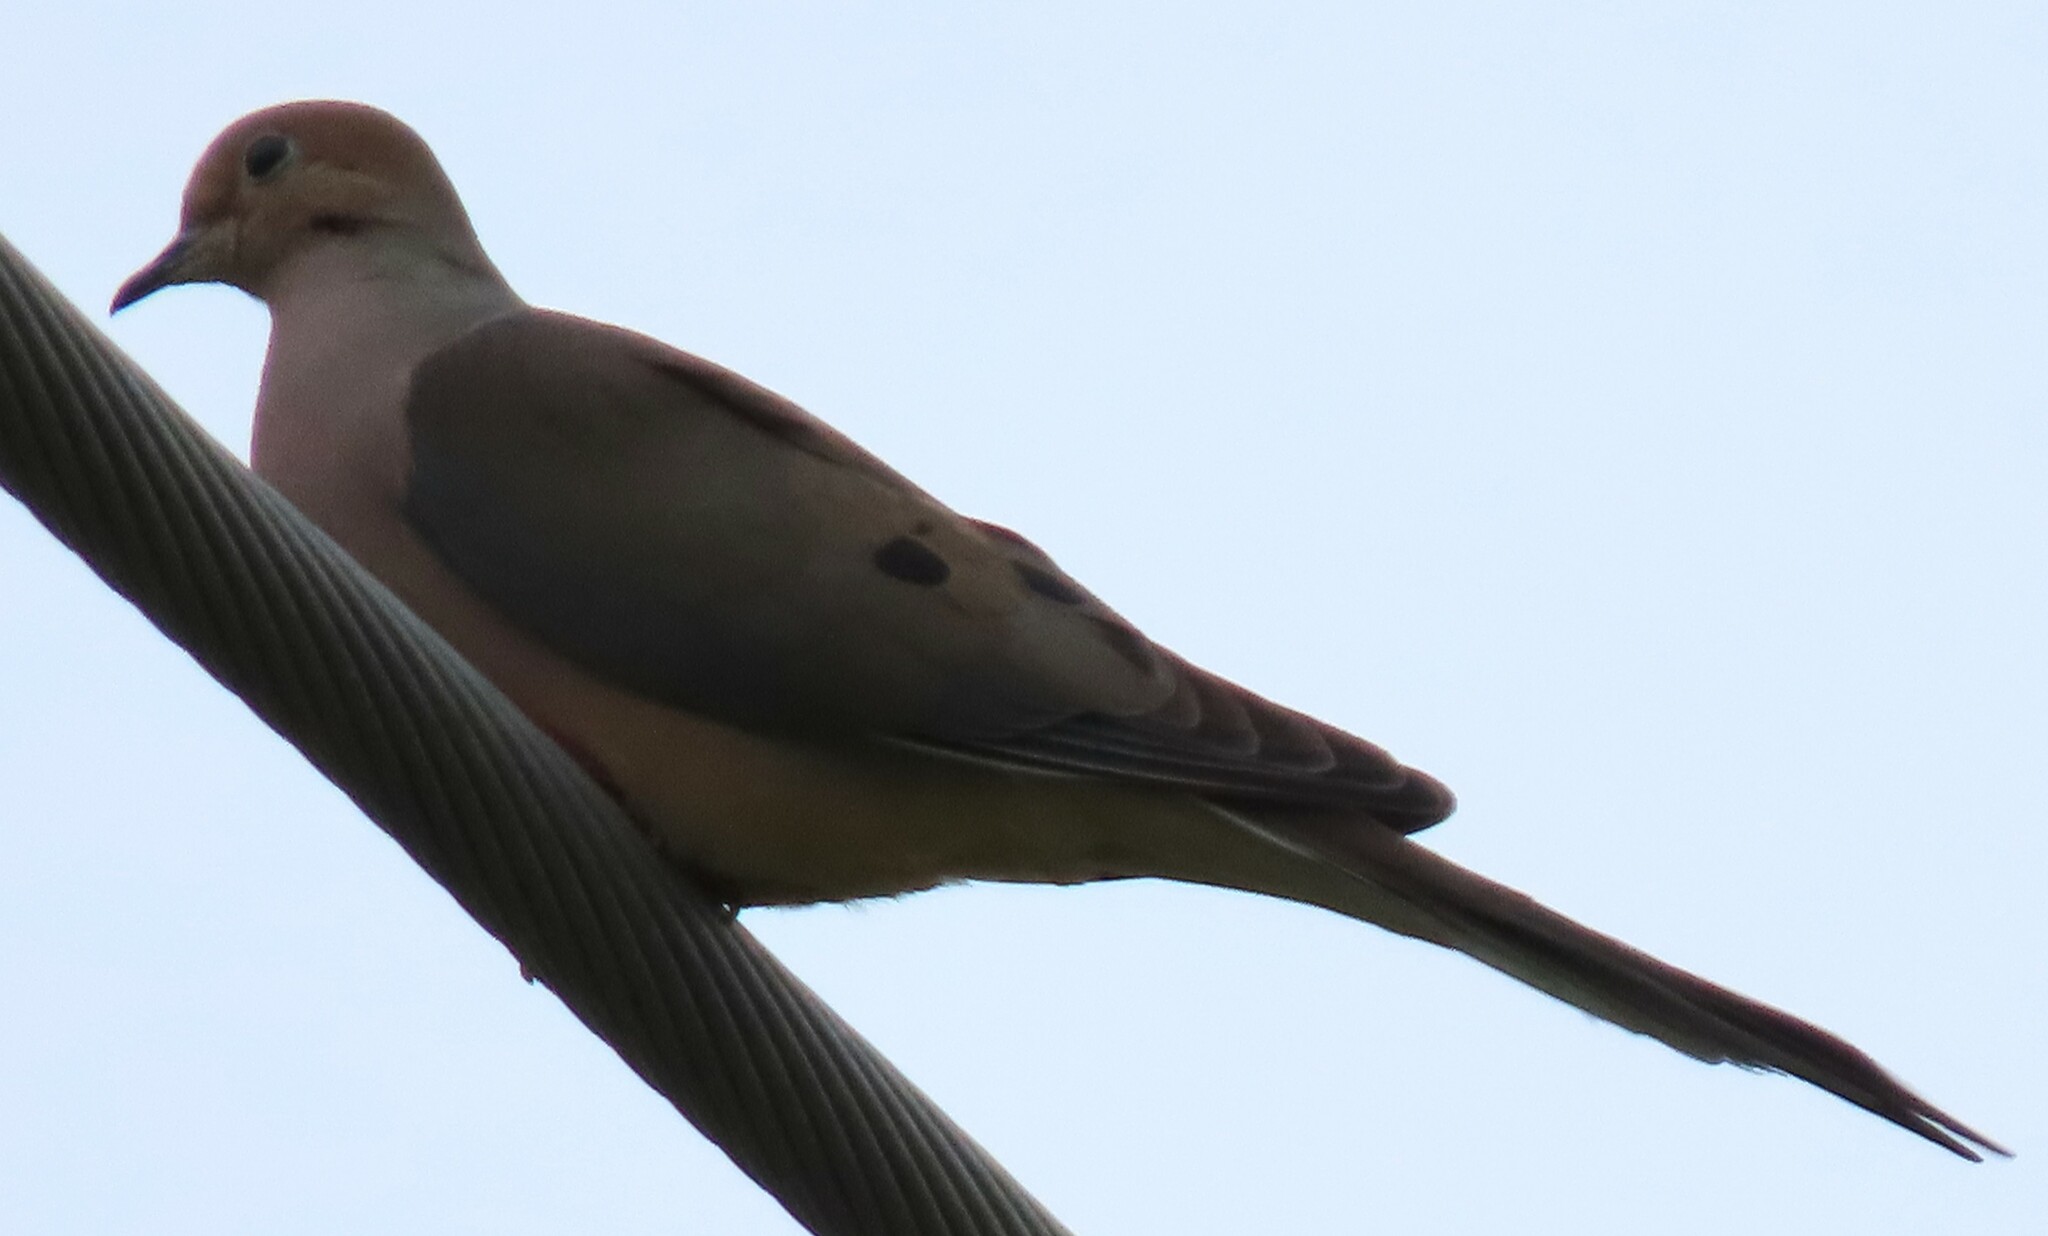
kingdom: Animalia
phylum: Chordata
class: Aves
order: Columbiformes
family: Columbidae
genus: Zenaida
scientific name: Zenaida macroura
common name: Mourning dove
